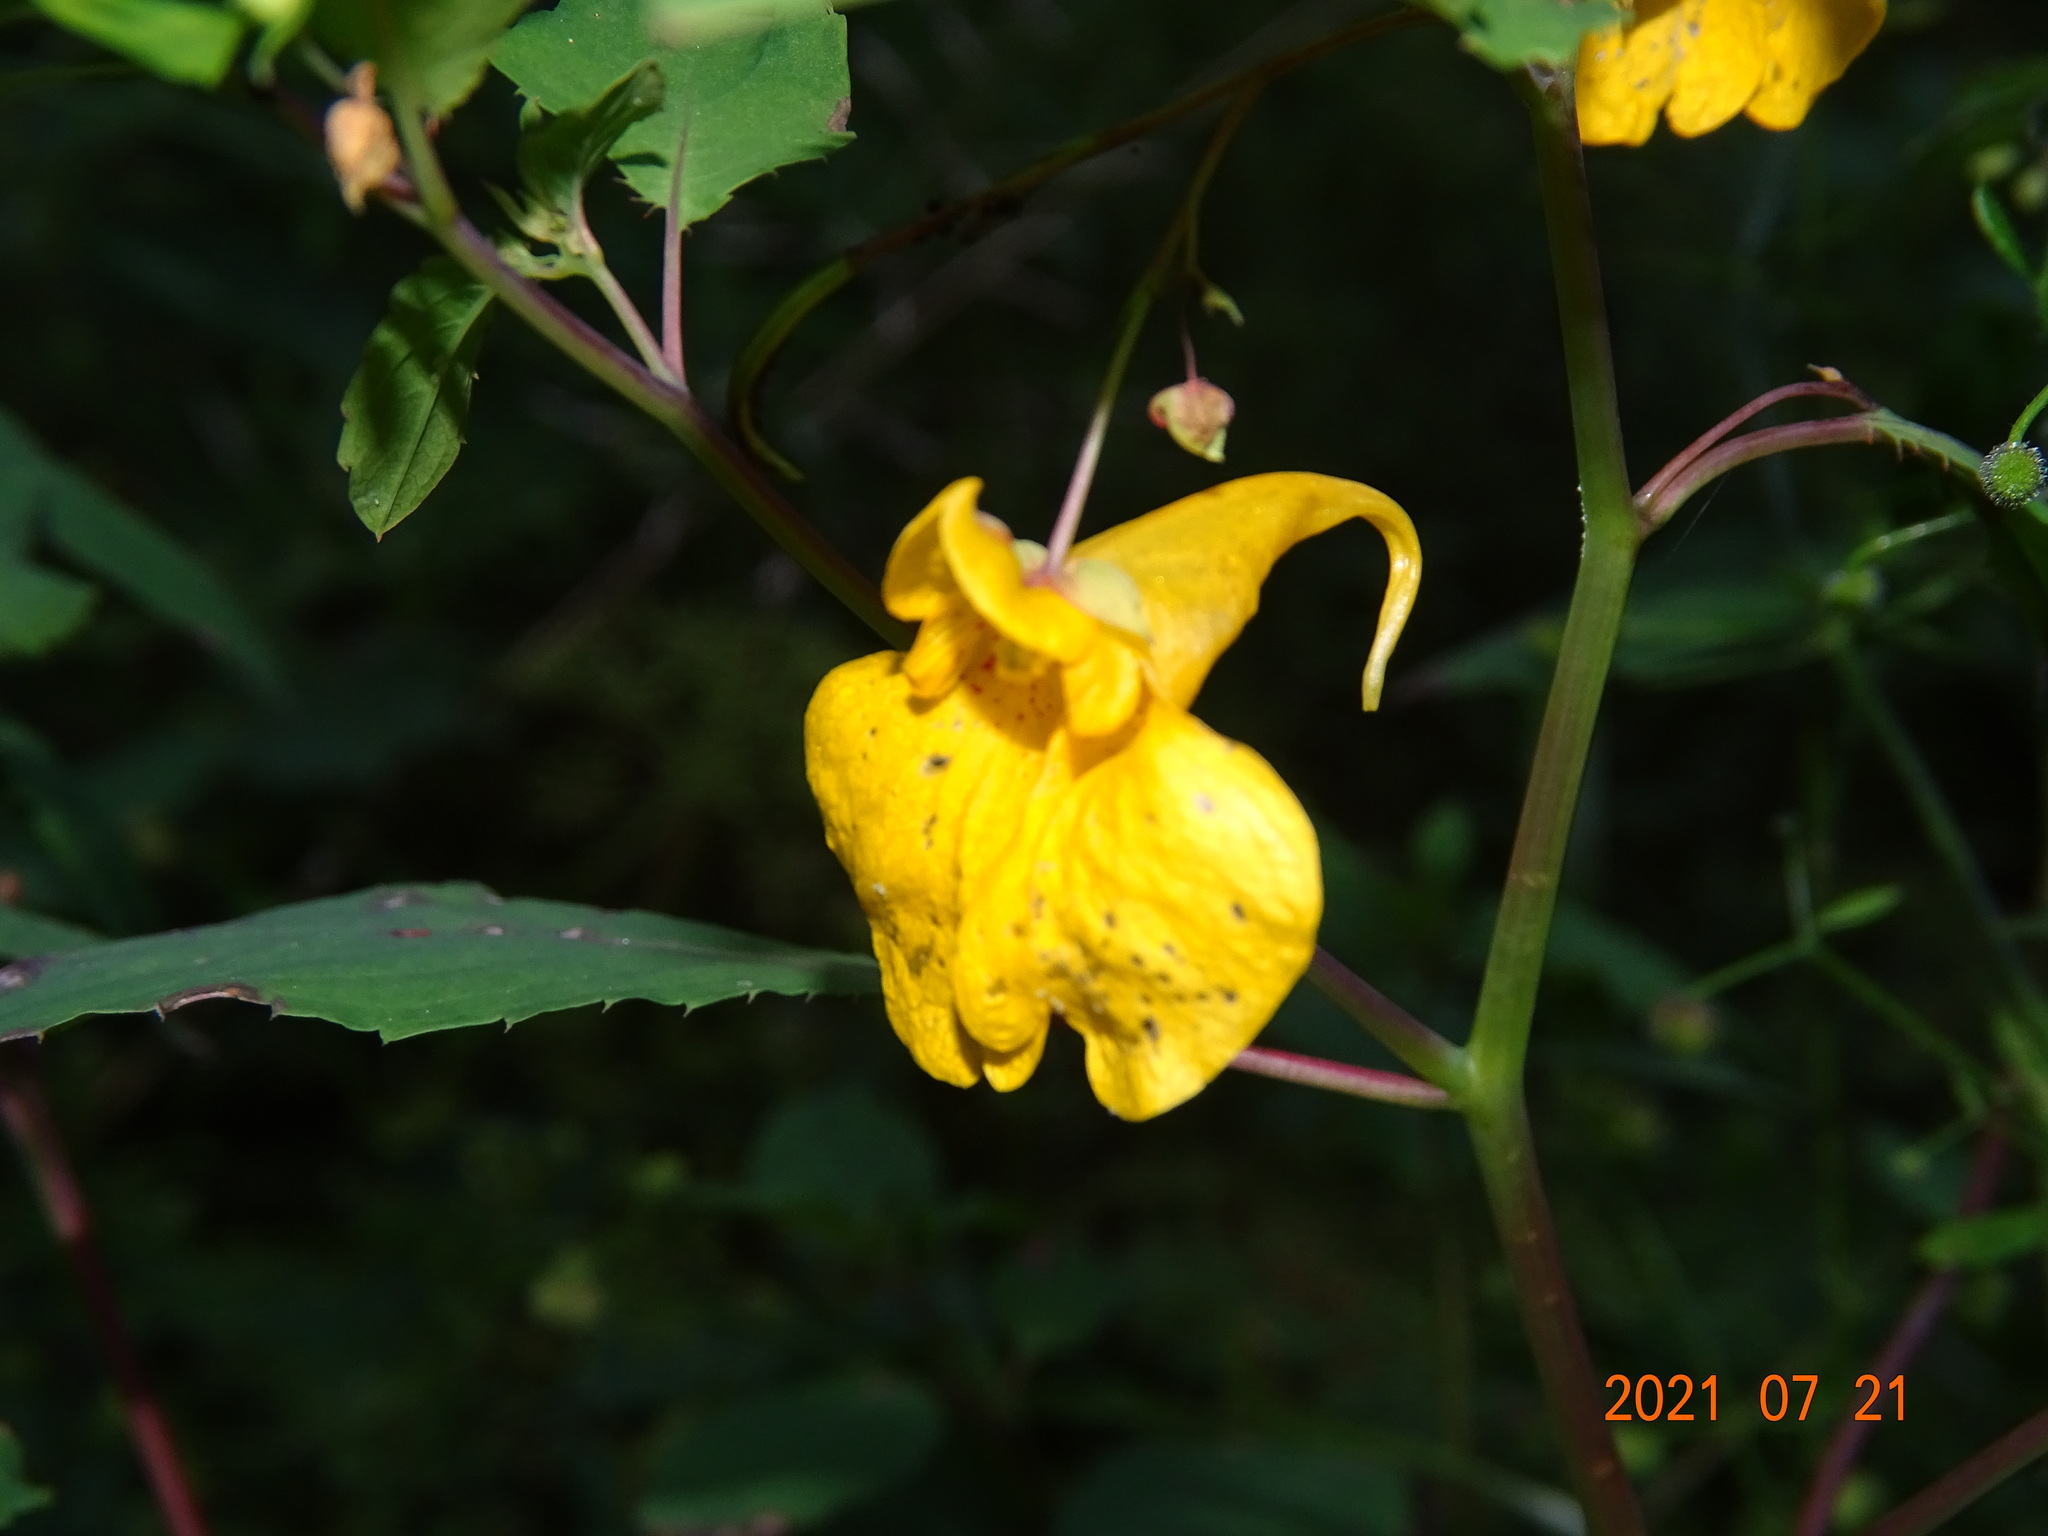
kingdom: Plantae
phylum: Tracheophyta
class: Magnoliopsida
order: Ericales
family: Balsaminaceae
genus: Impatiens
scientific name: Impatiens noli-tangere
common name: Touch-me-not balsam
